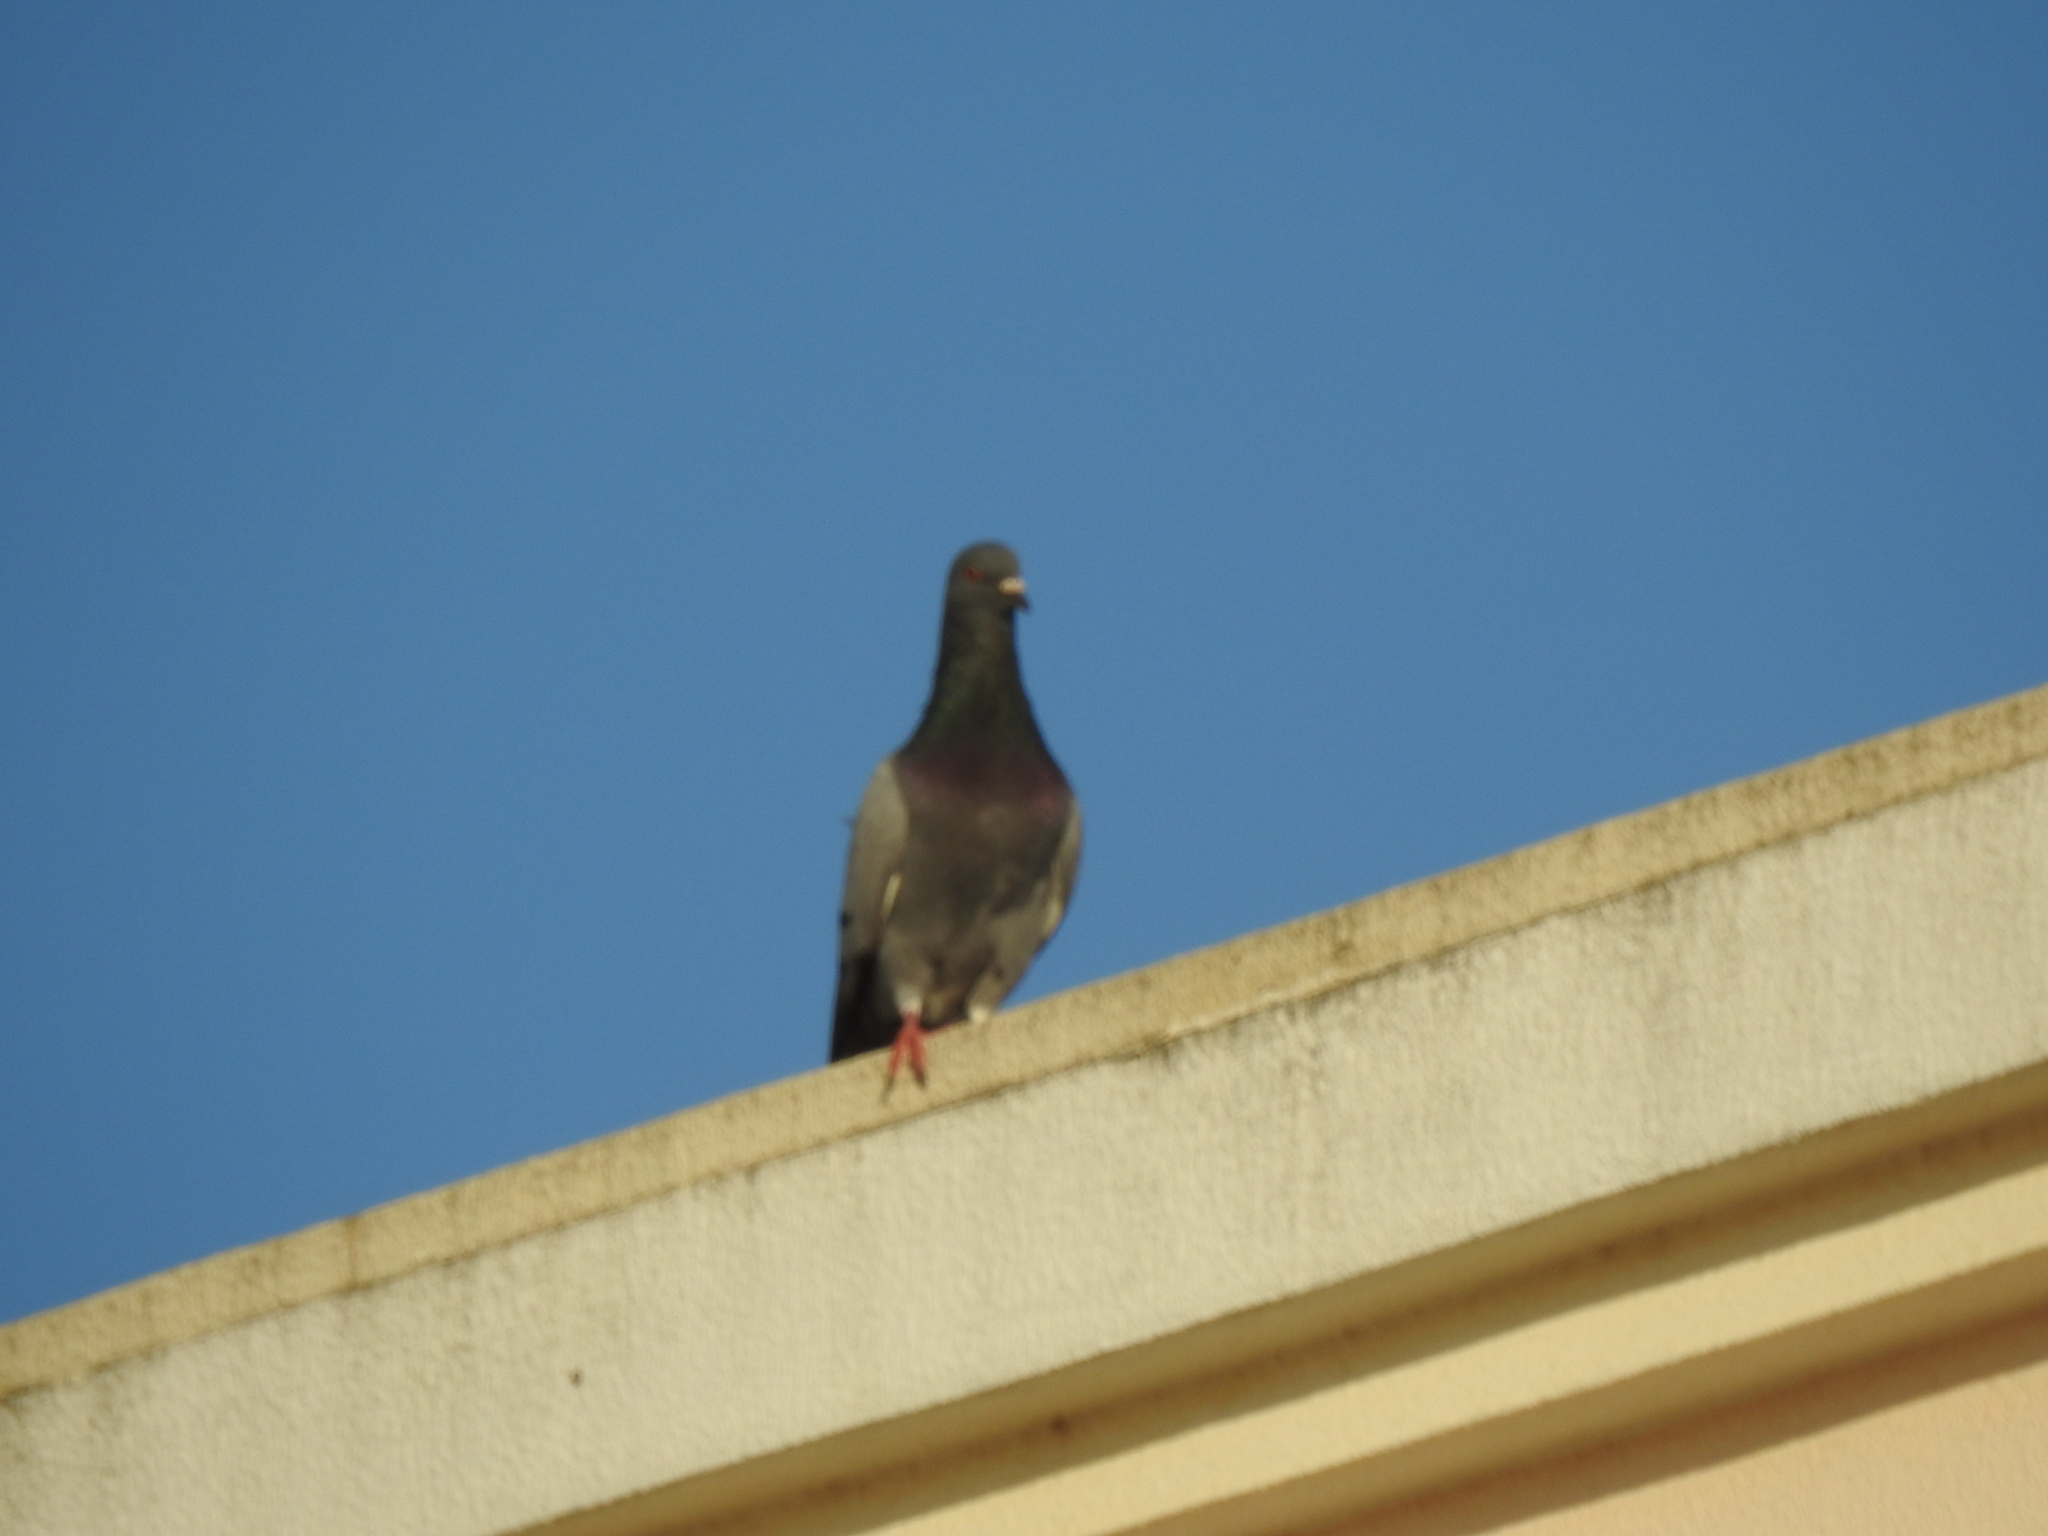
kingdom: Animalia
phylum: Chordata
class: Aves
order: Columbiformes
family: Columbidae
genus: Columba
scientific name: Columba livia
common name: Rock pigeon
